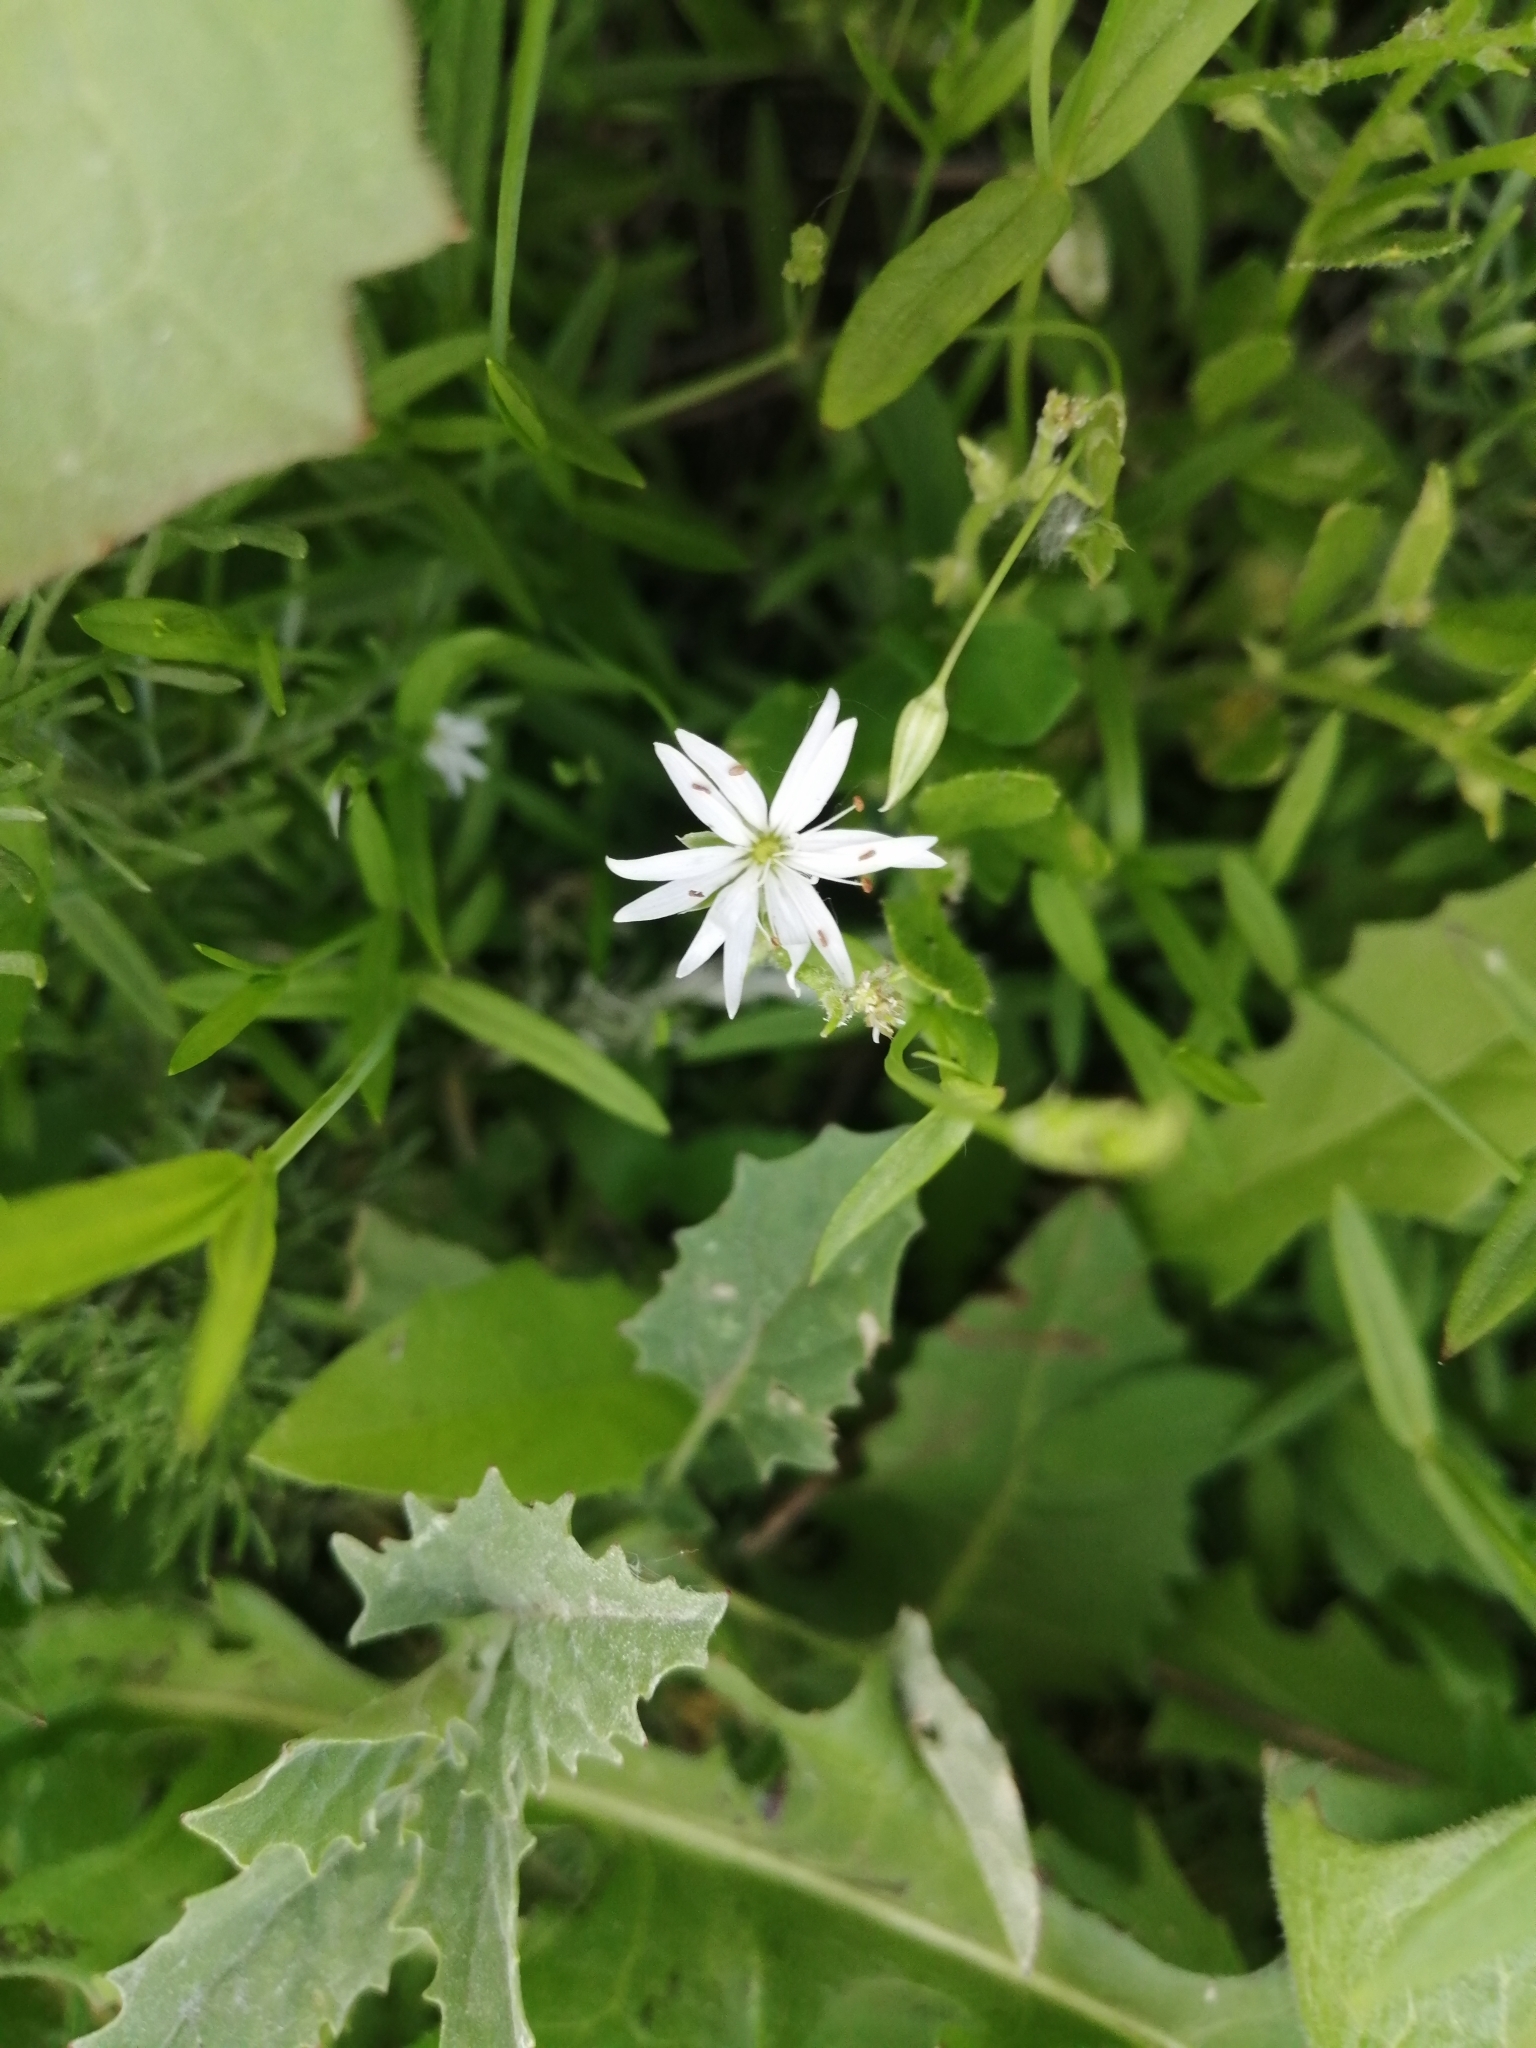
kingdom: Plantae
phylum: Tracheophyta
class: Magnoliopsida
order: Caryophyllales
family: Caryophyllaceae
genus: Stellaria
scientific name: Stellaria graminea
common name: Grass-like starwort
